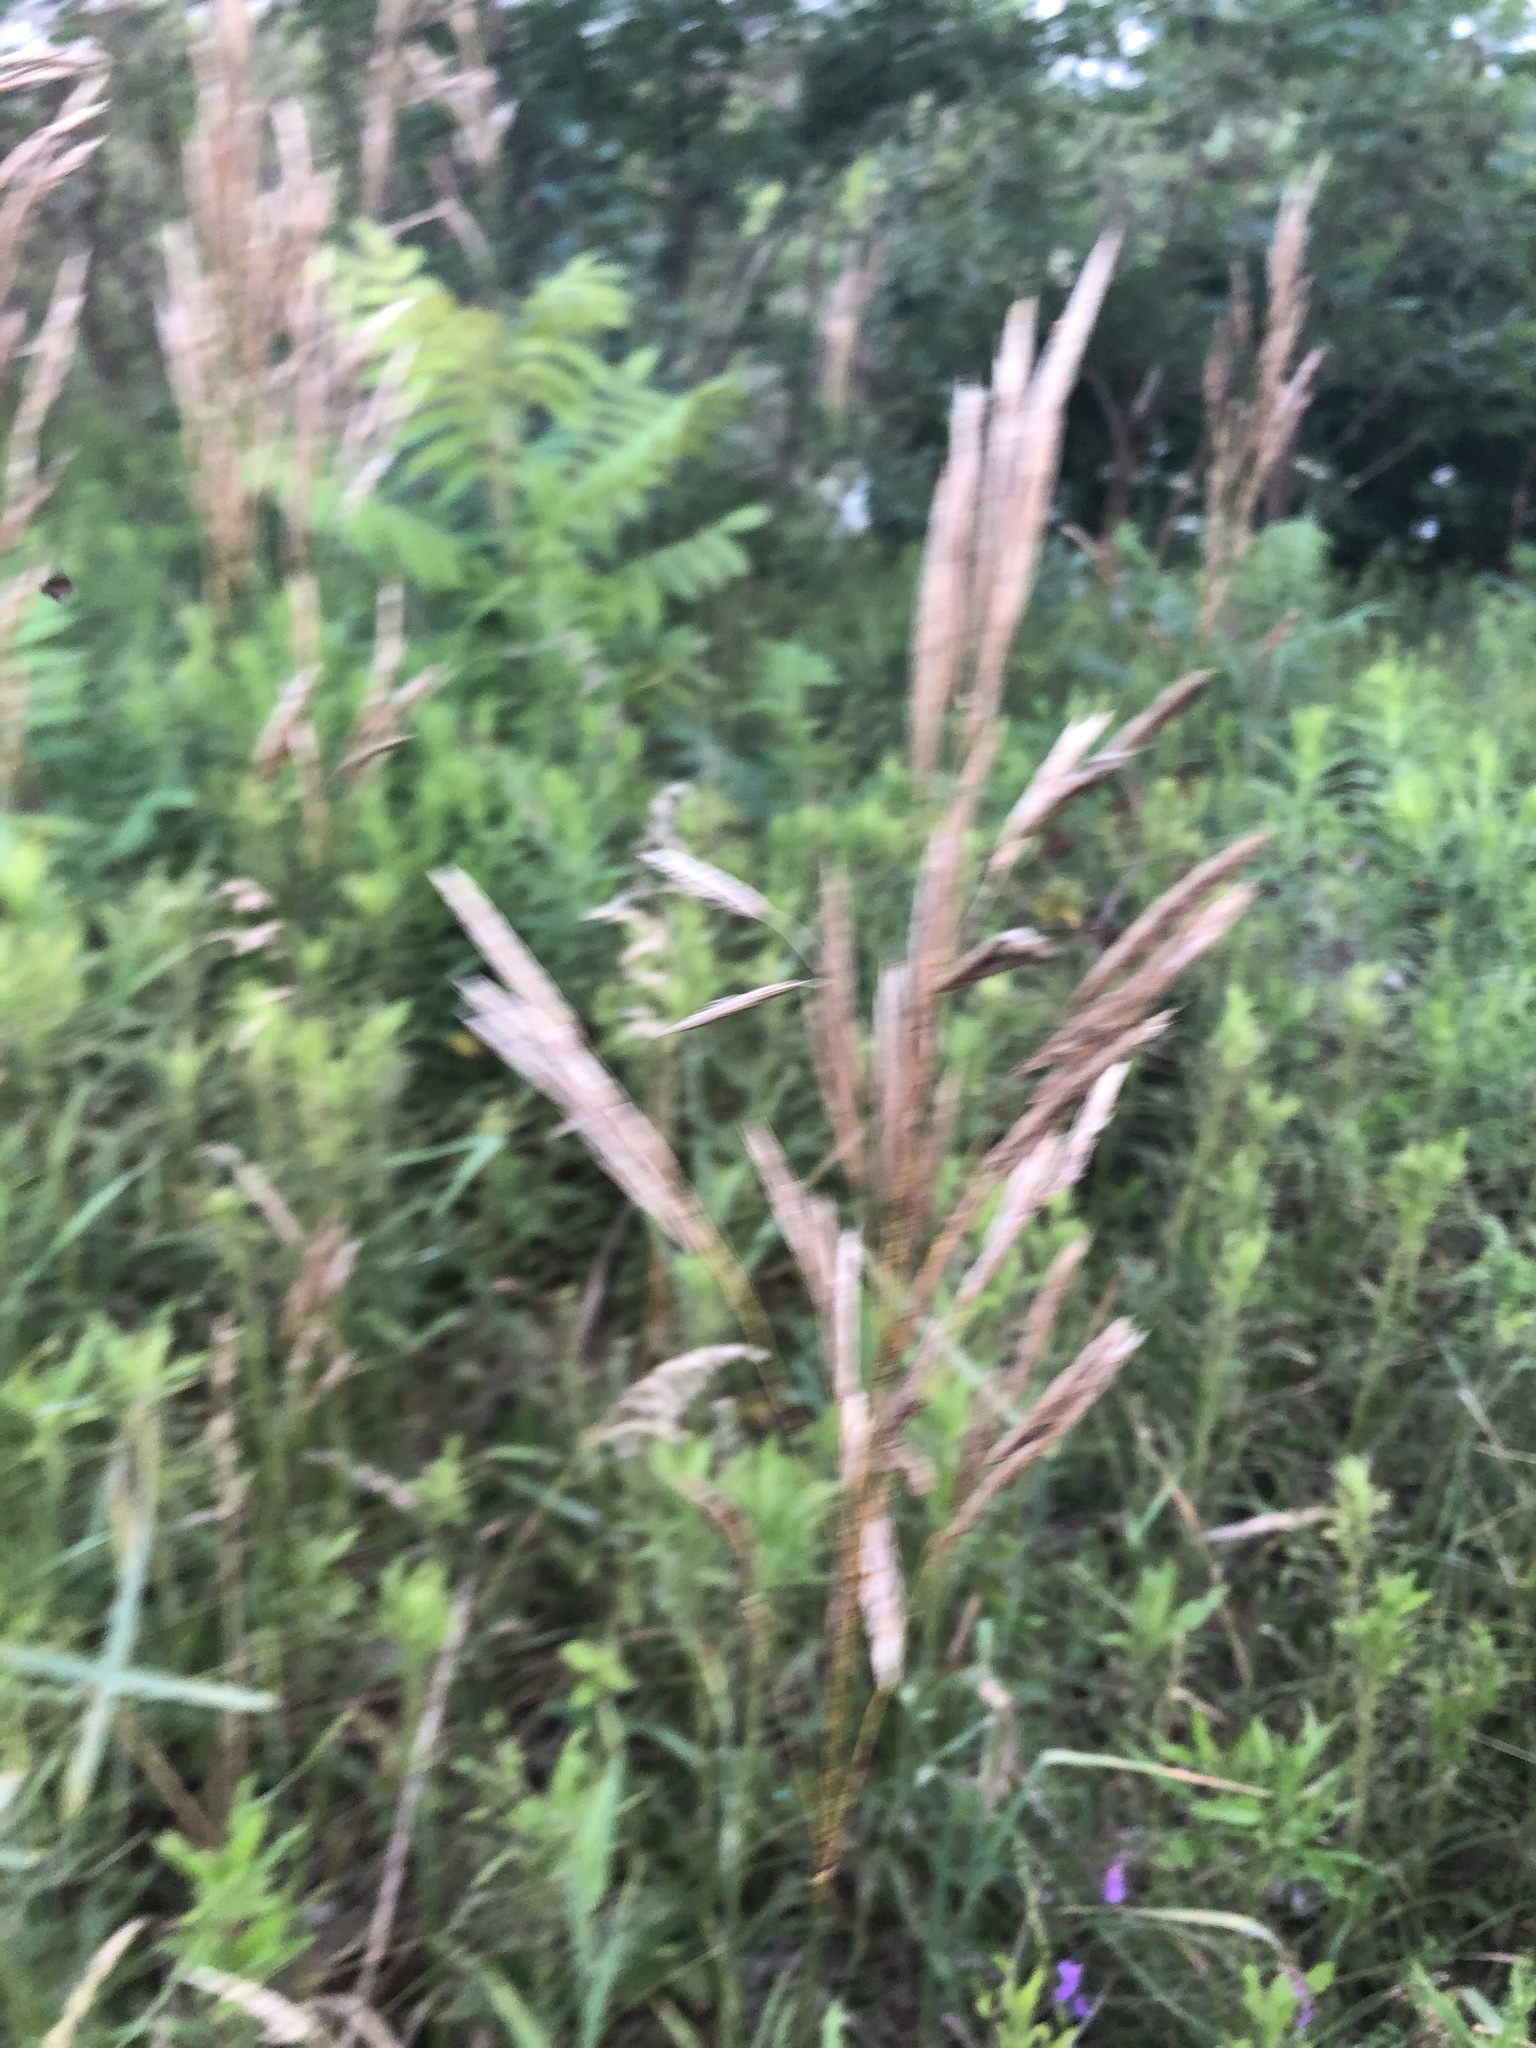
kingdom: Plantae
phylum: Tracheophyta
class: Liliopsida
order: Poales
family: Poaceae
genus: Bromus
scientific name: Bromus inermis
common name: Smooth brome
